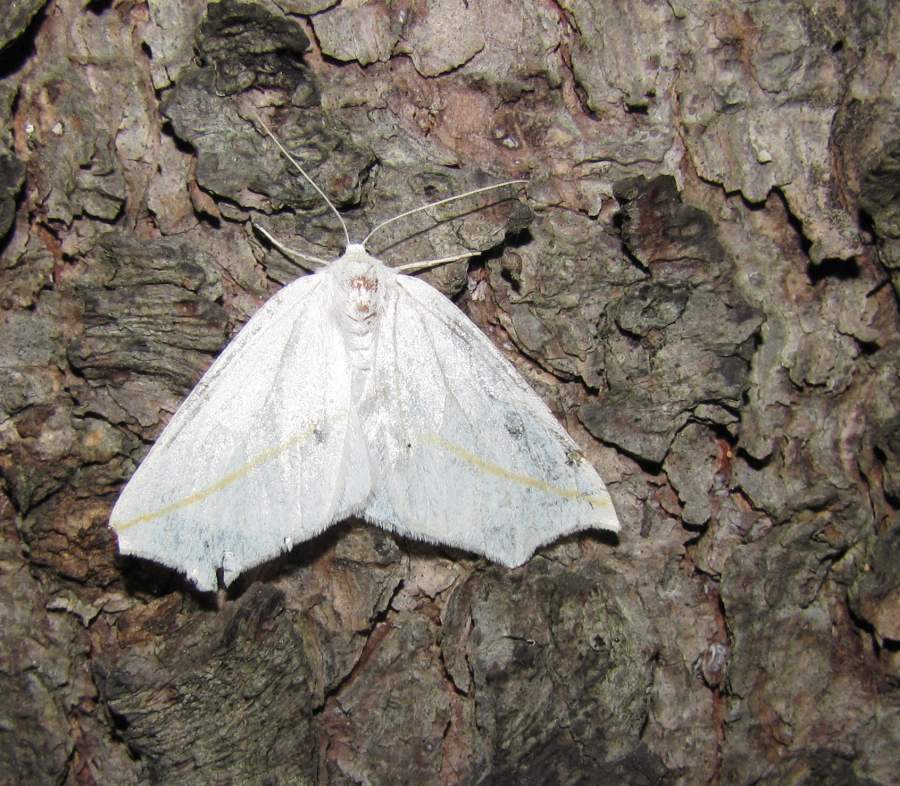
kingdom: Animalia
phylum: Arthropoda
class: Insecta
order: Lepidoptera
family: Geometridae
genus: Tetracis
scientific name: Tetracis cachexiata
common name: White slant-line
